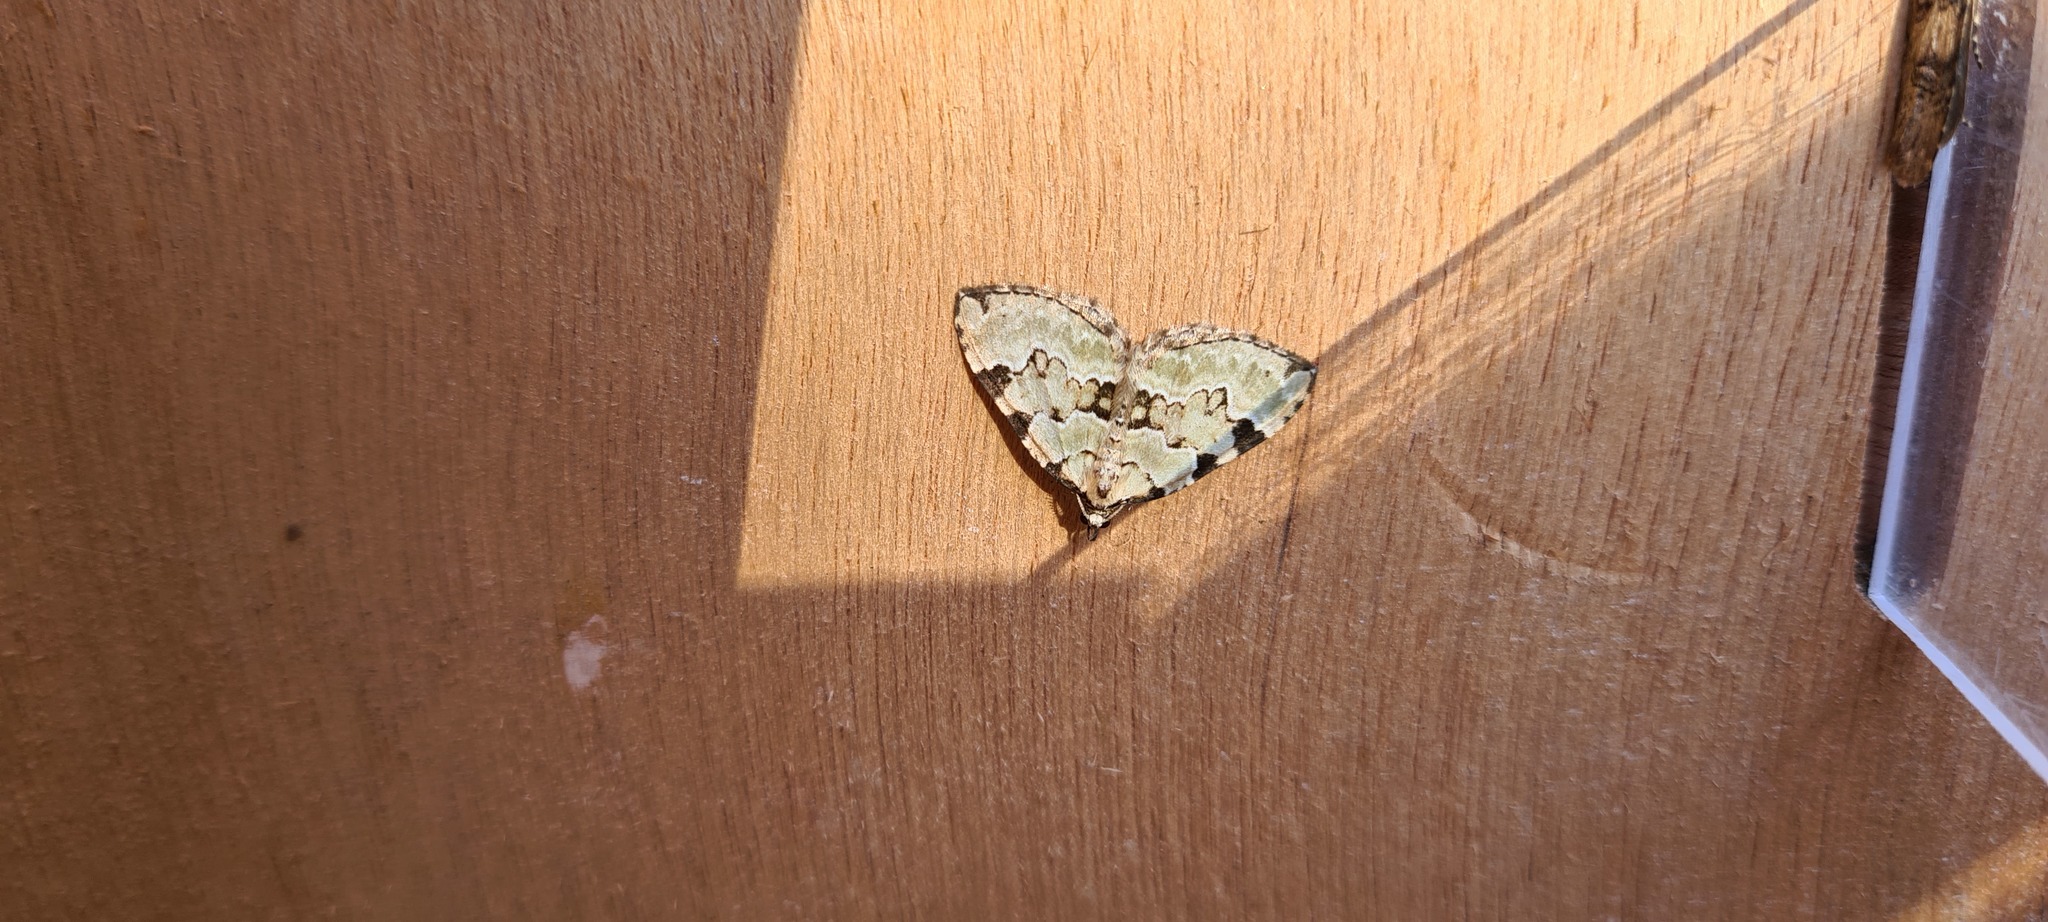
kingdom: Animalia
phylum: Arthropoda
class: Insecta
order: Lepidoptera
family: Geometridae
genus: Colostygia
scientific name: Colostygia pectinataria
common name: Green carpet
